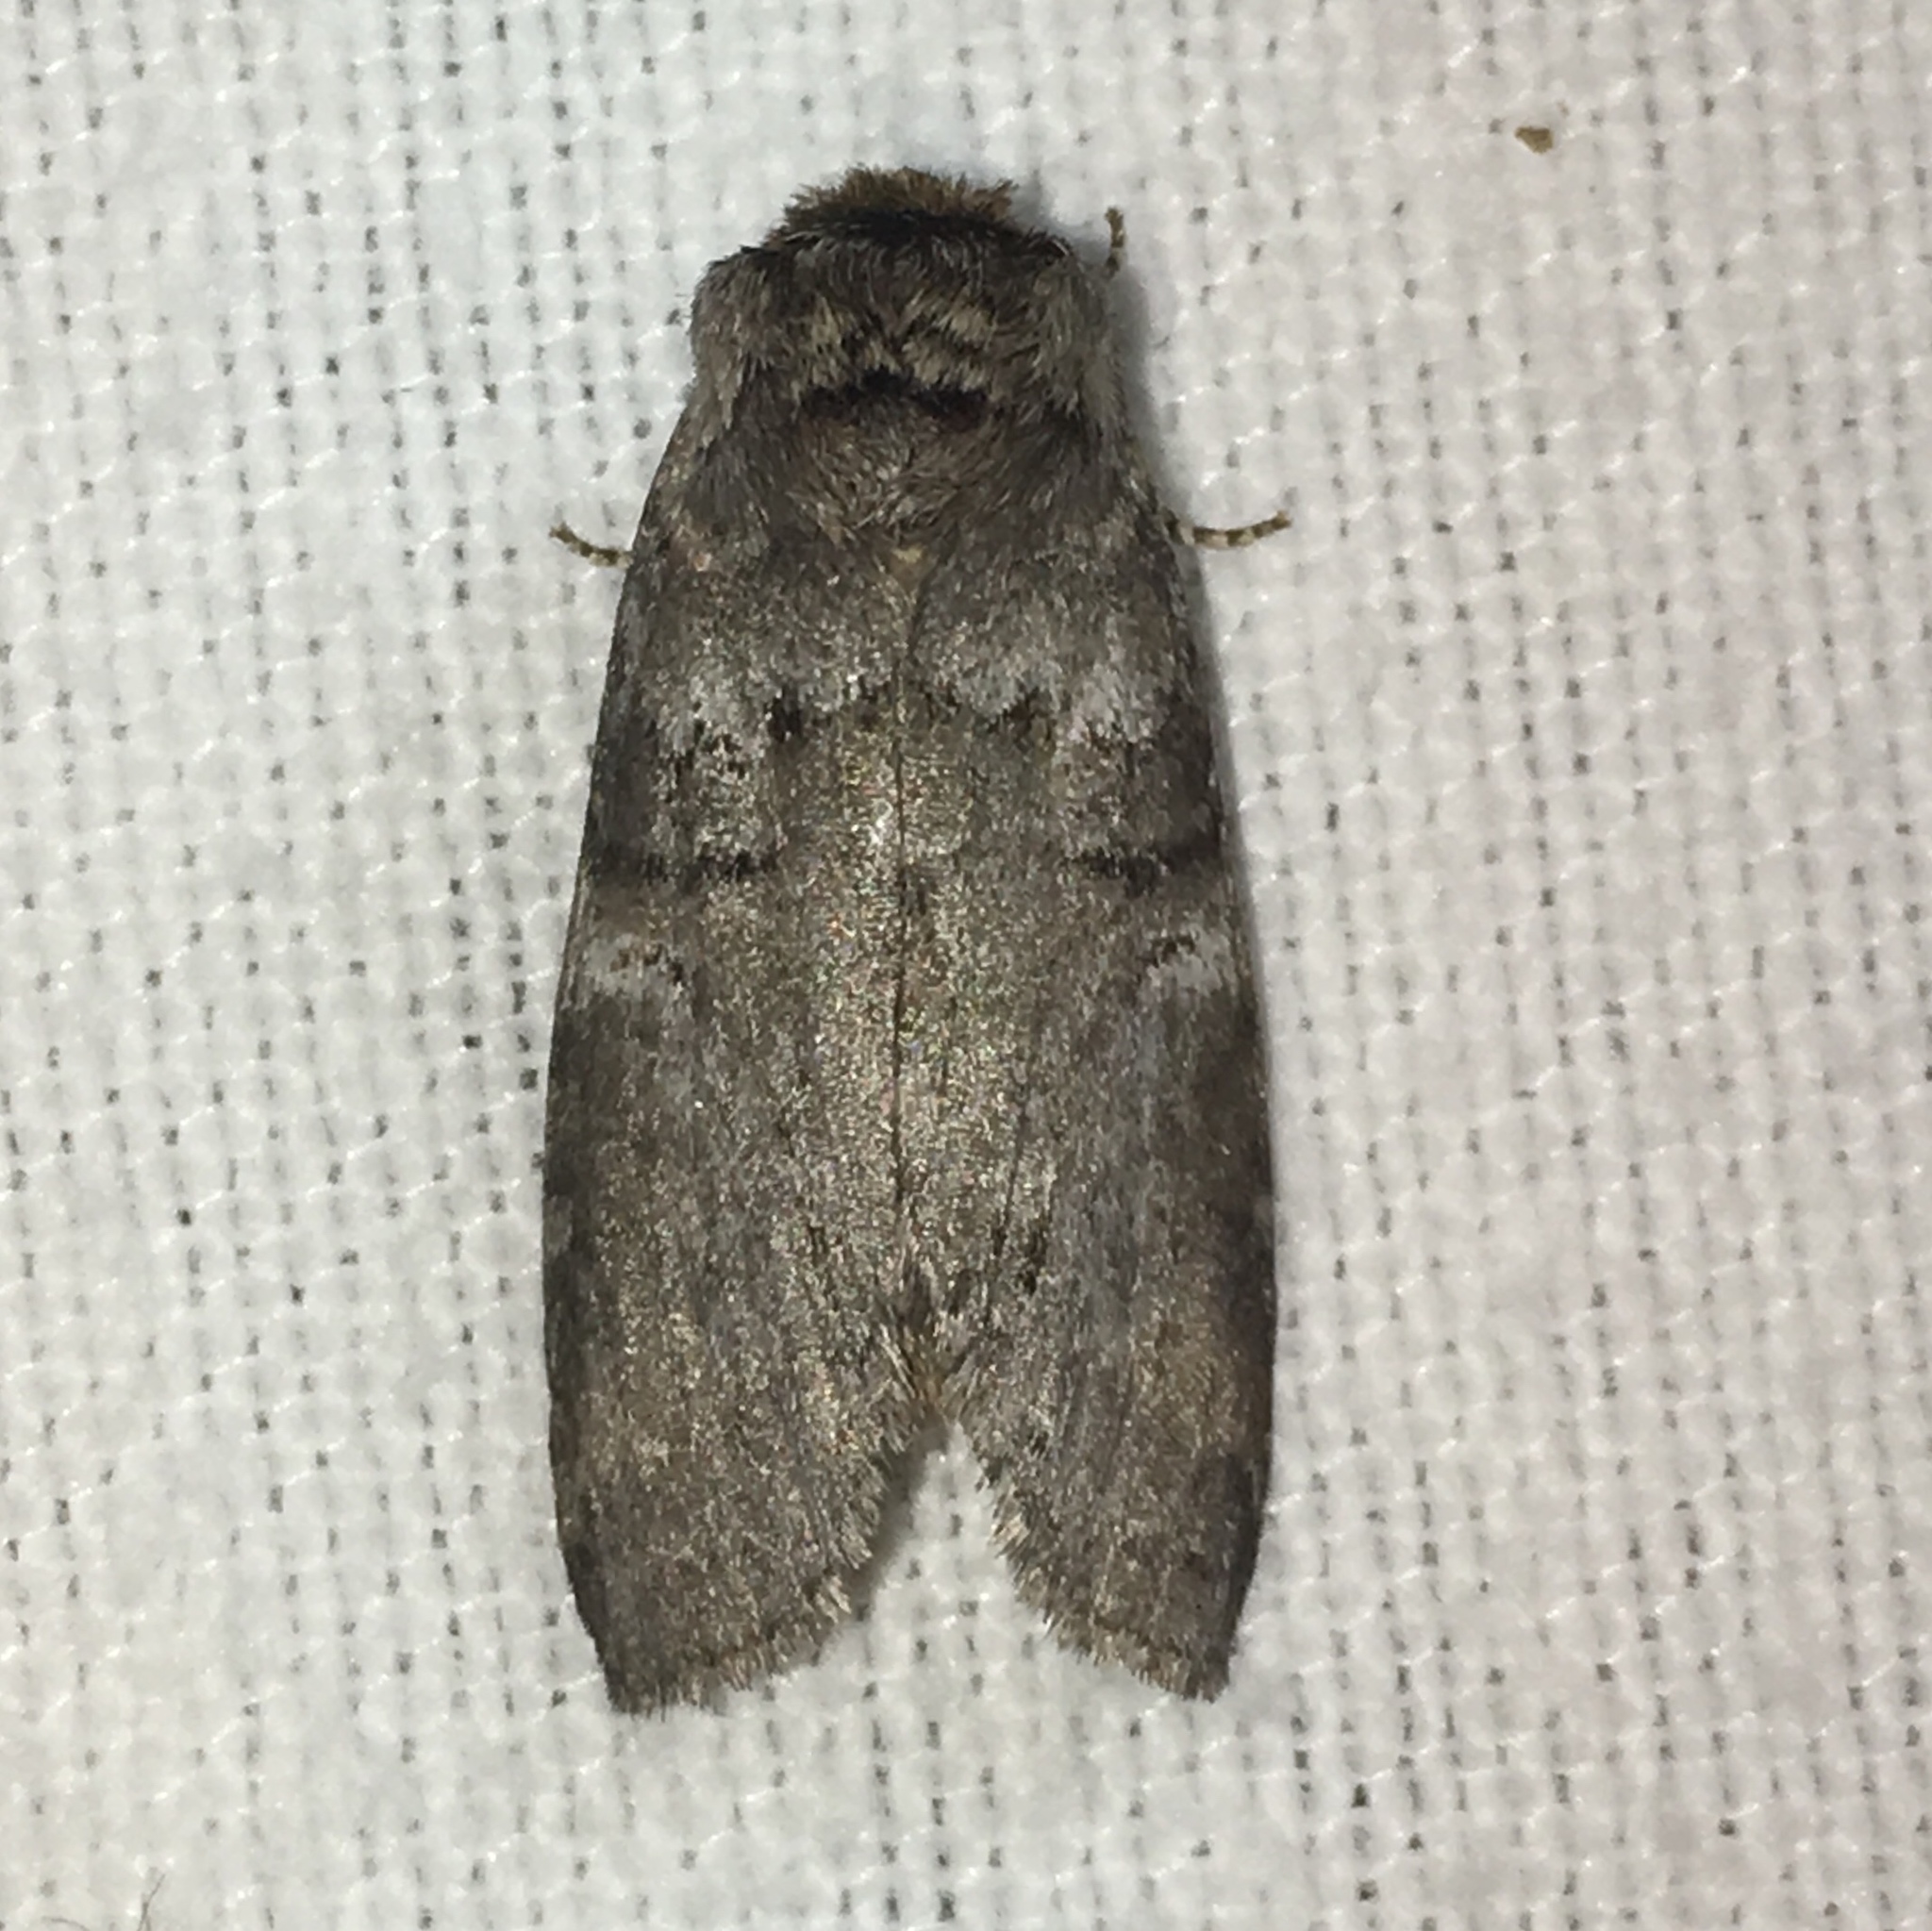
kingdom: Animalia
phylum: Arthropoda
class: Insecta
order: Lepidoptera
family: Notodontidae
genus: Ellida
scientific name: Ellida caniplaga
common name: Linden prominent
